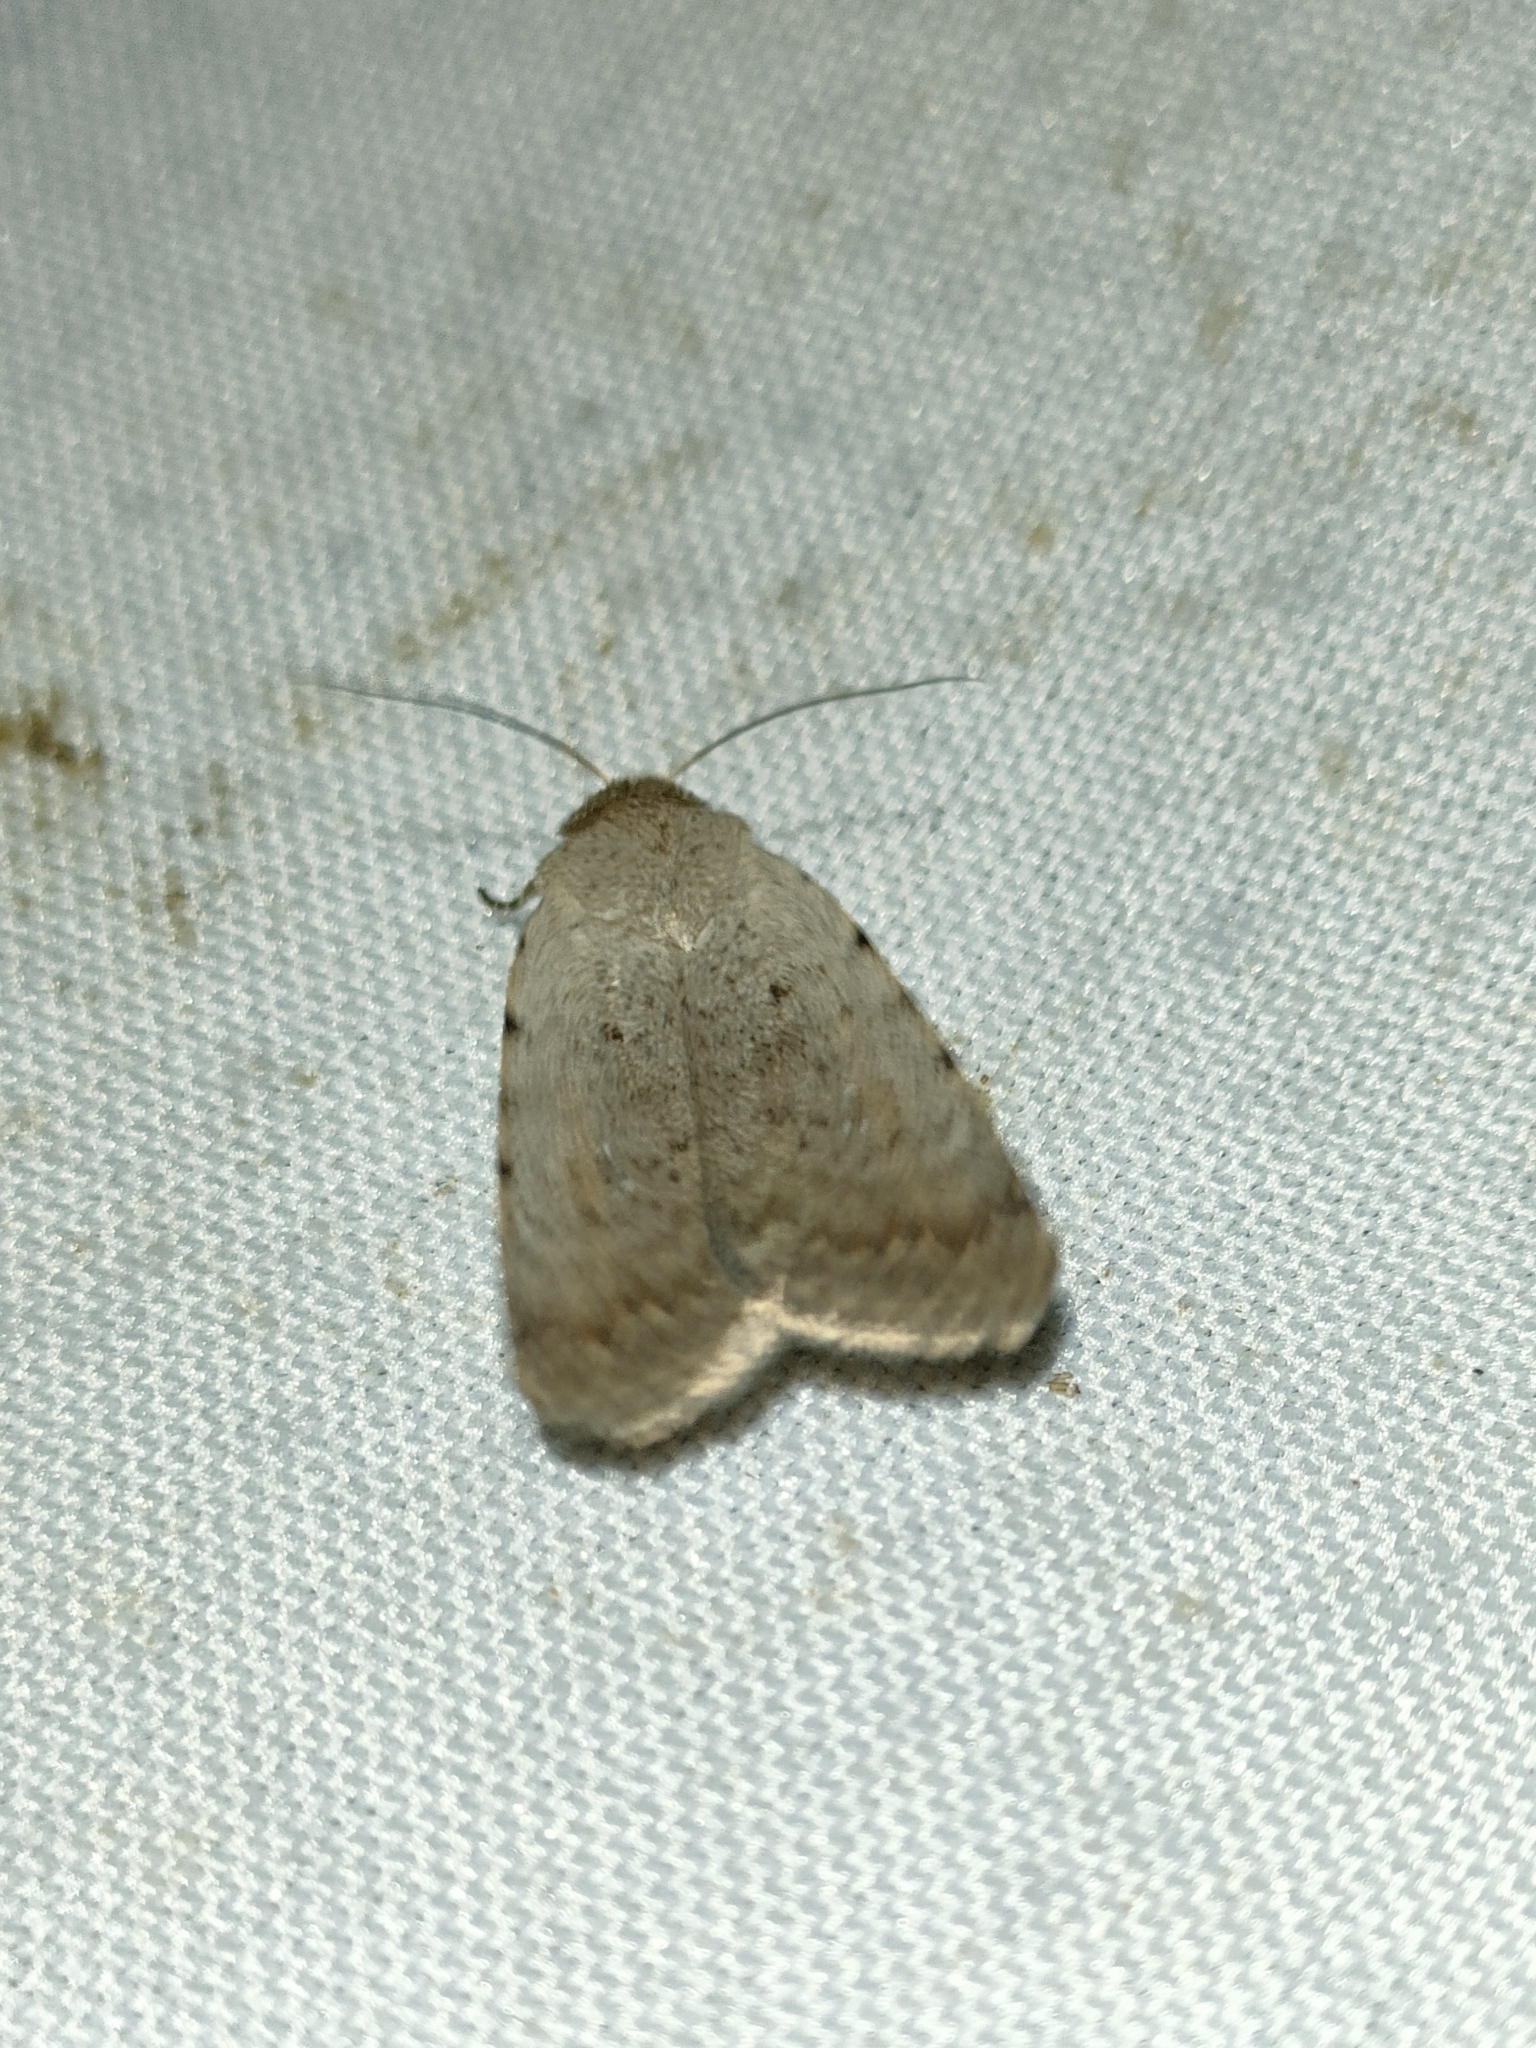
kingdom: Animalia
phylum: Arthropoda
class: Insecta
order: Lepidoptera
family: Noctuidae
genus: Caradrina
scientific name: Caradrina selini
